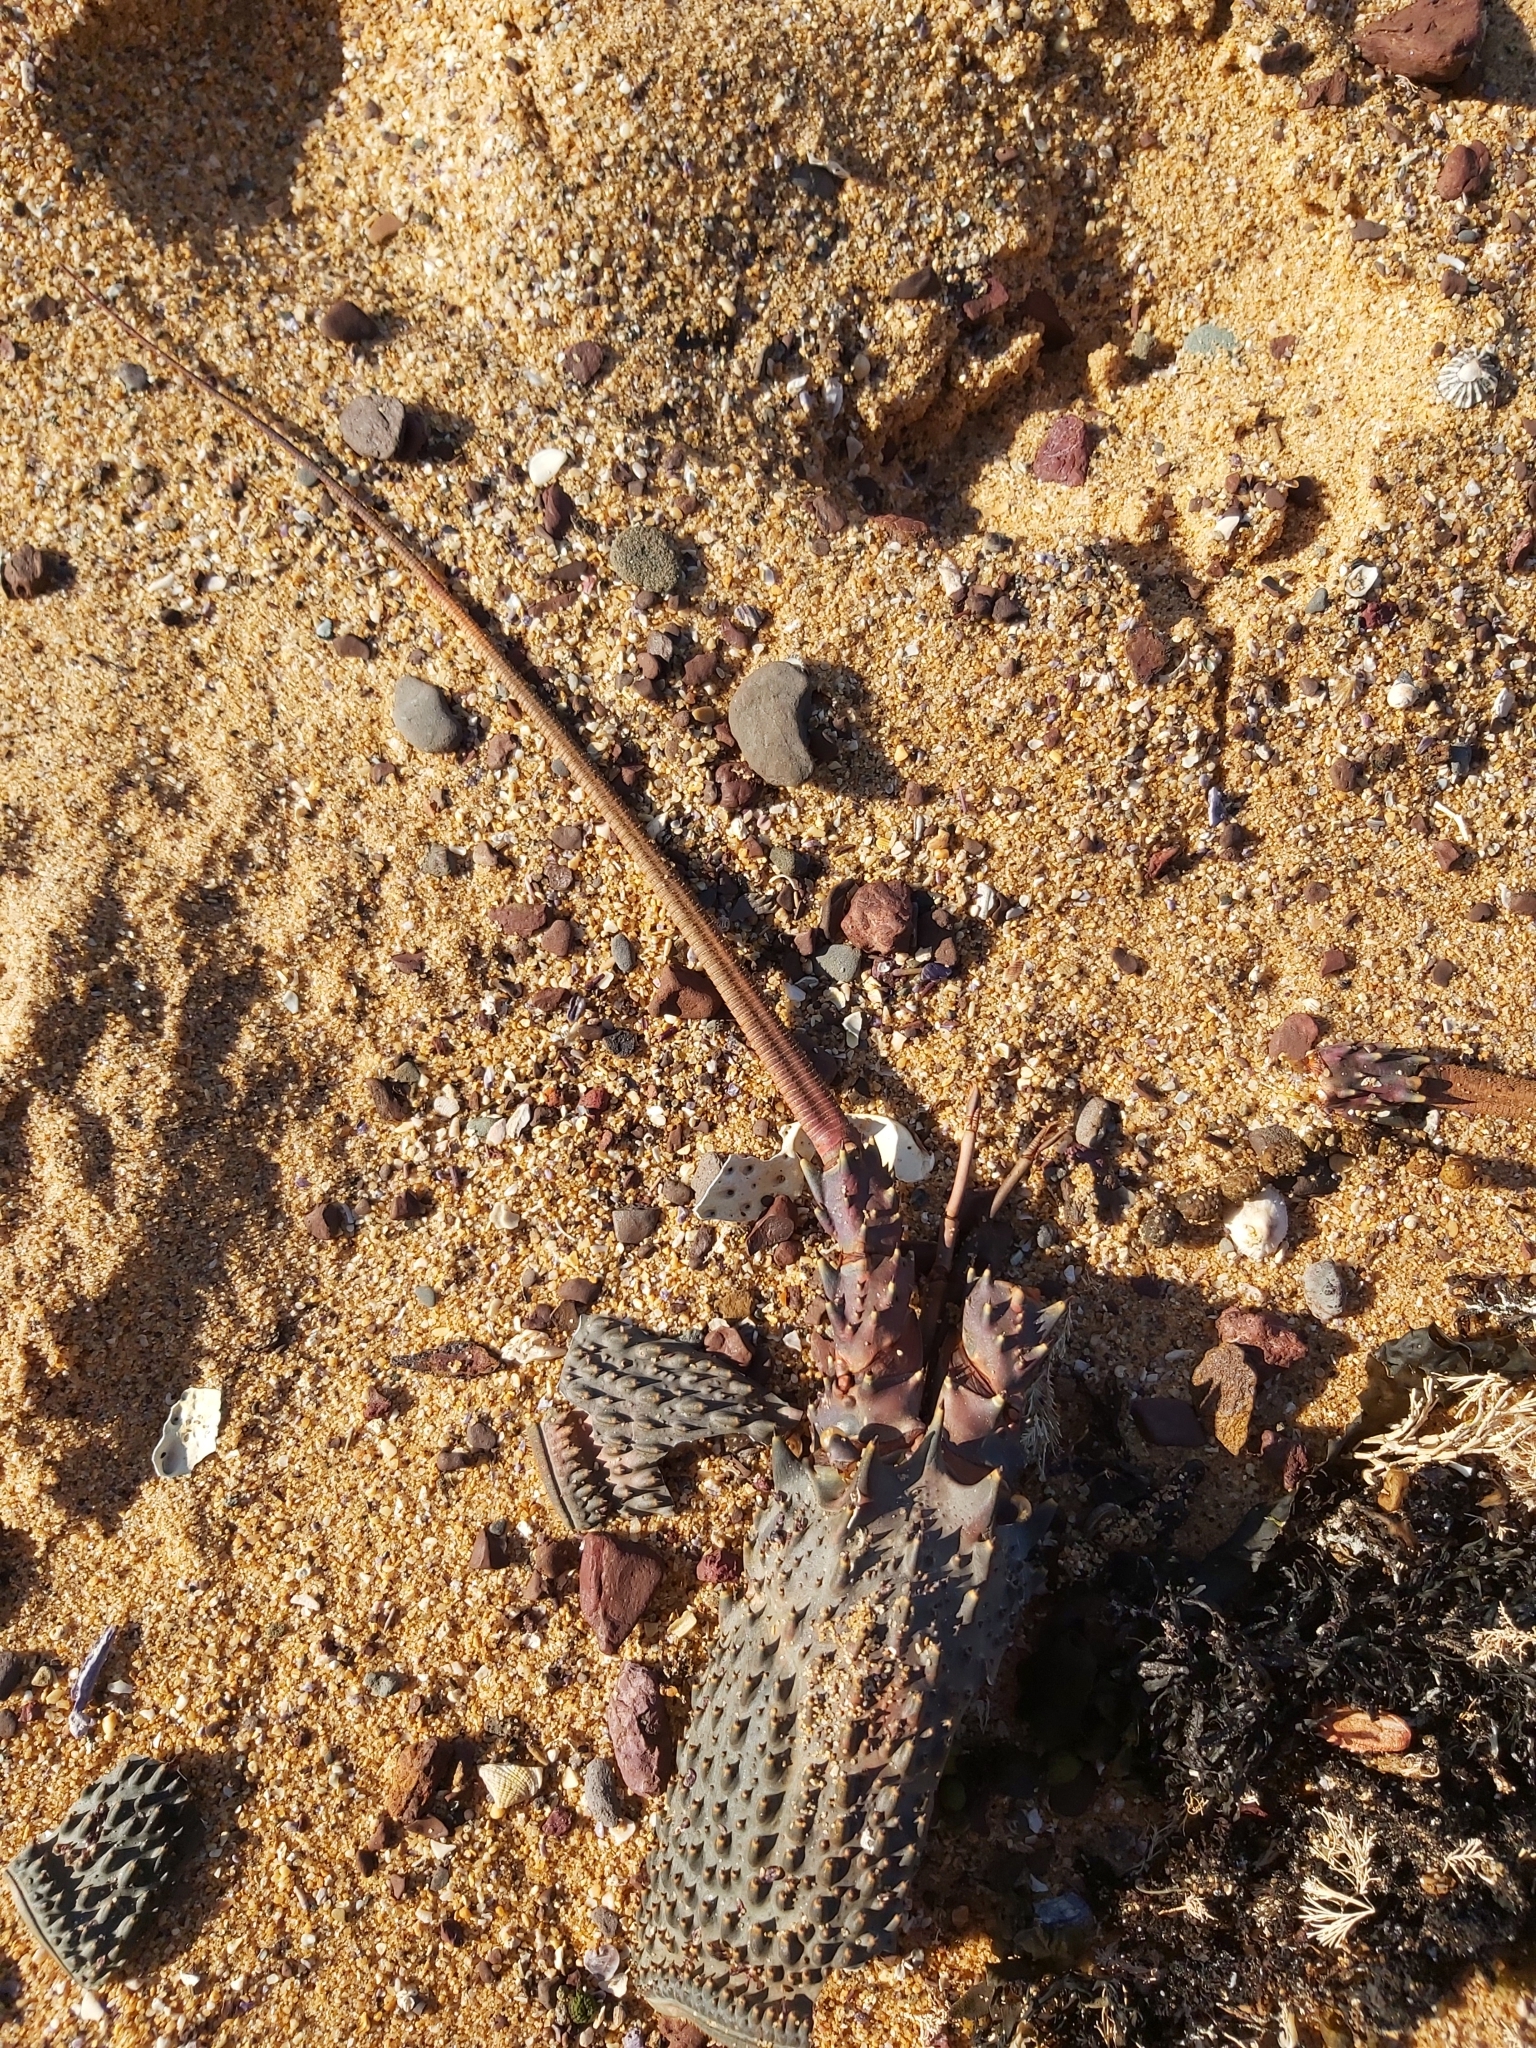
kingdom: Animalia
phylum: Arthropoda
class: Malacostraca
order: Decapoda
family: Palinuridae
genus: Sagmariasus
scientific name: Sagmariasus verreauxi
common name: Green rock lobster
